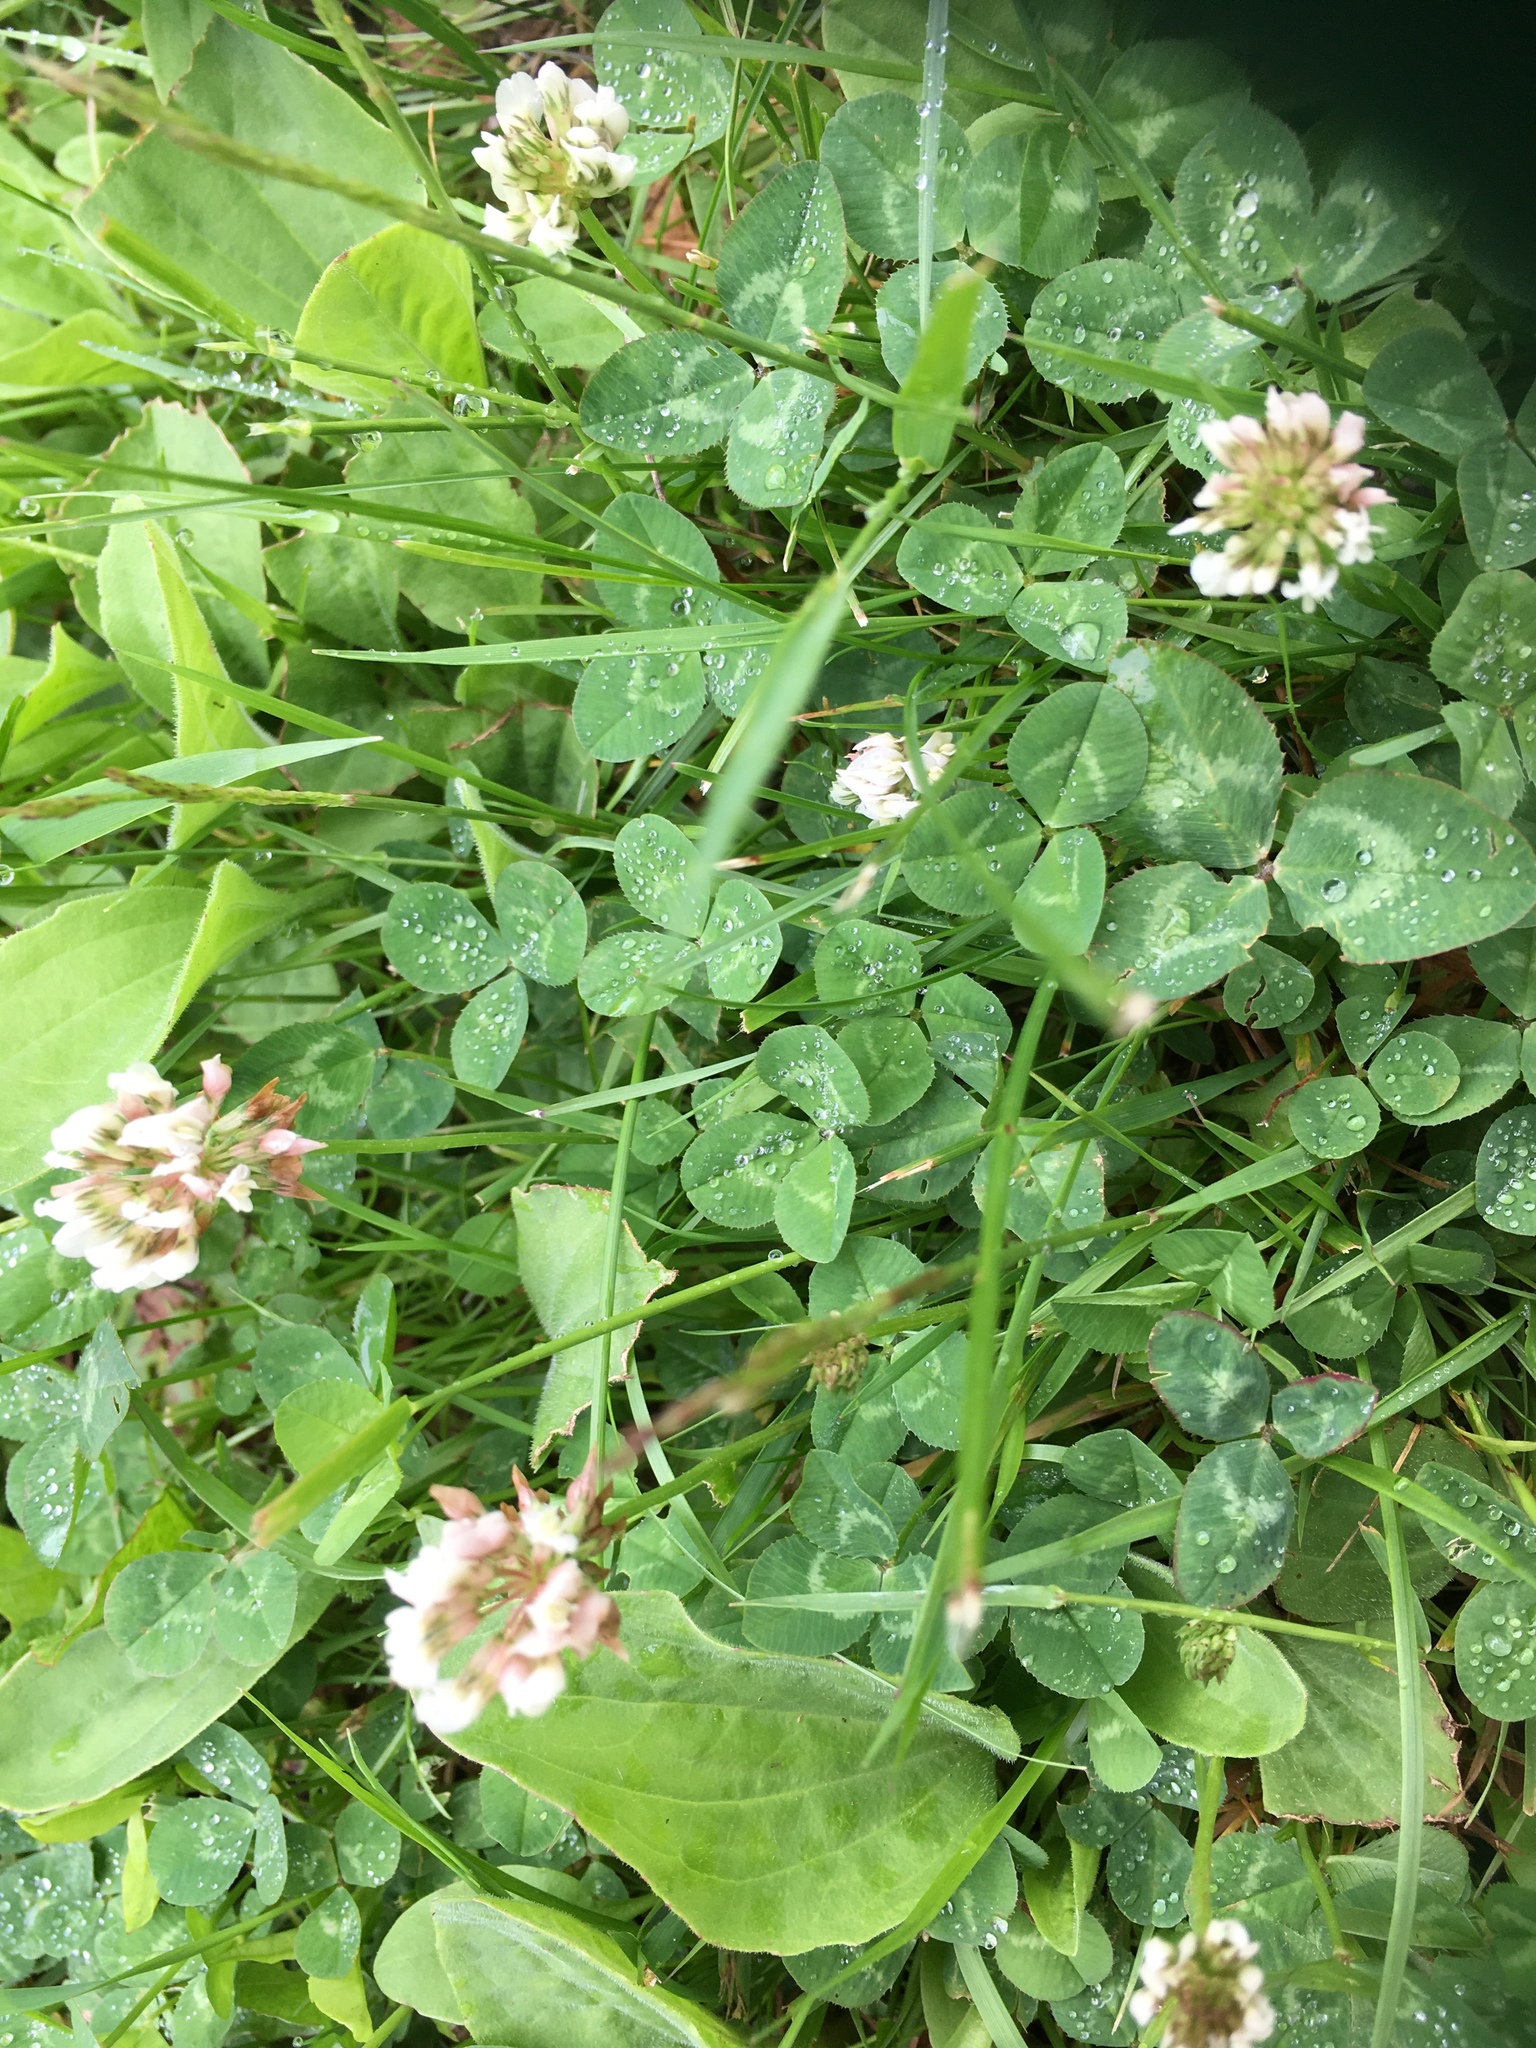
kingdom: Plantae
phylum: Tracheophyta
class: Magnoliopsida
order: Fabales
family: Fabaceae
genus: Trifolium
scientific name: Trifolium repens
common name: White clover
